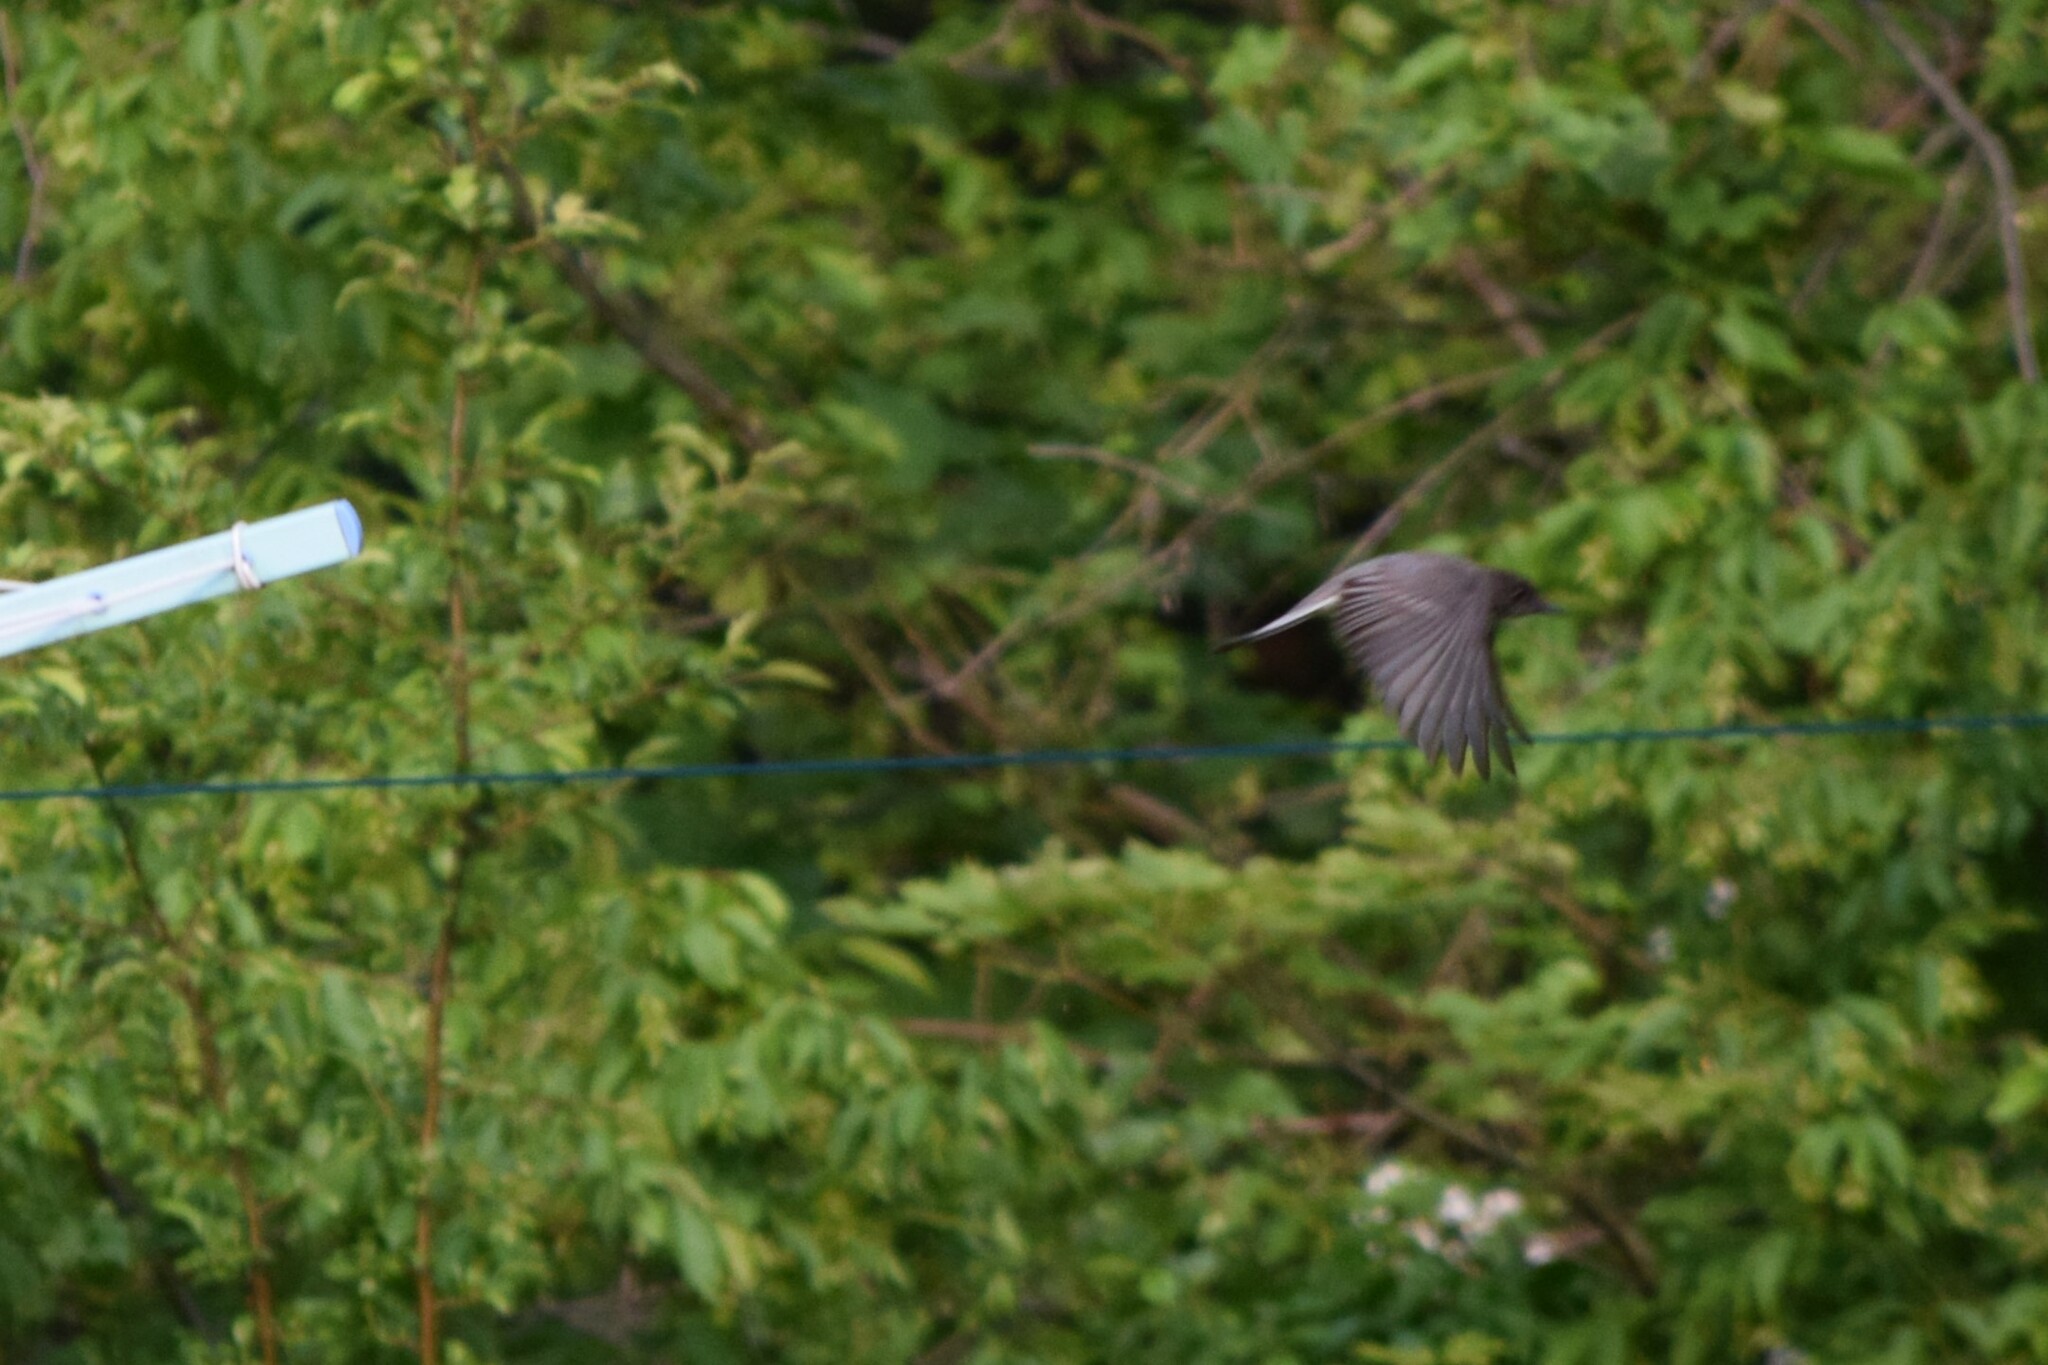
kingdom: Animalia
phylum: Chordata
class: Aves
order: Passeriformes
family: Tyrannidae
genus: Sayornis
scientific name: Sayornis phoebe
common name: Eastern phoebe
